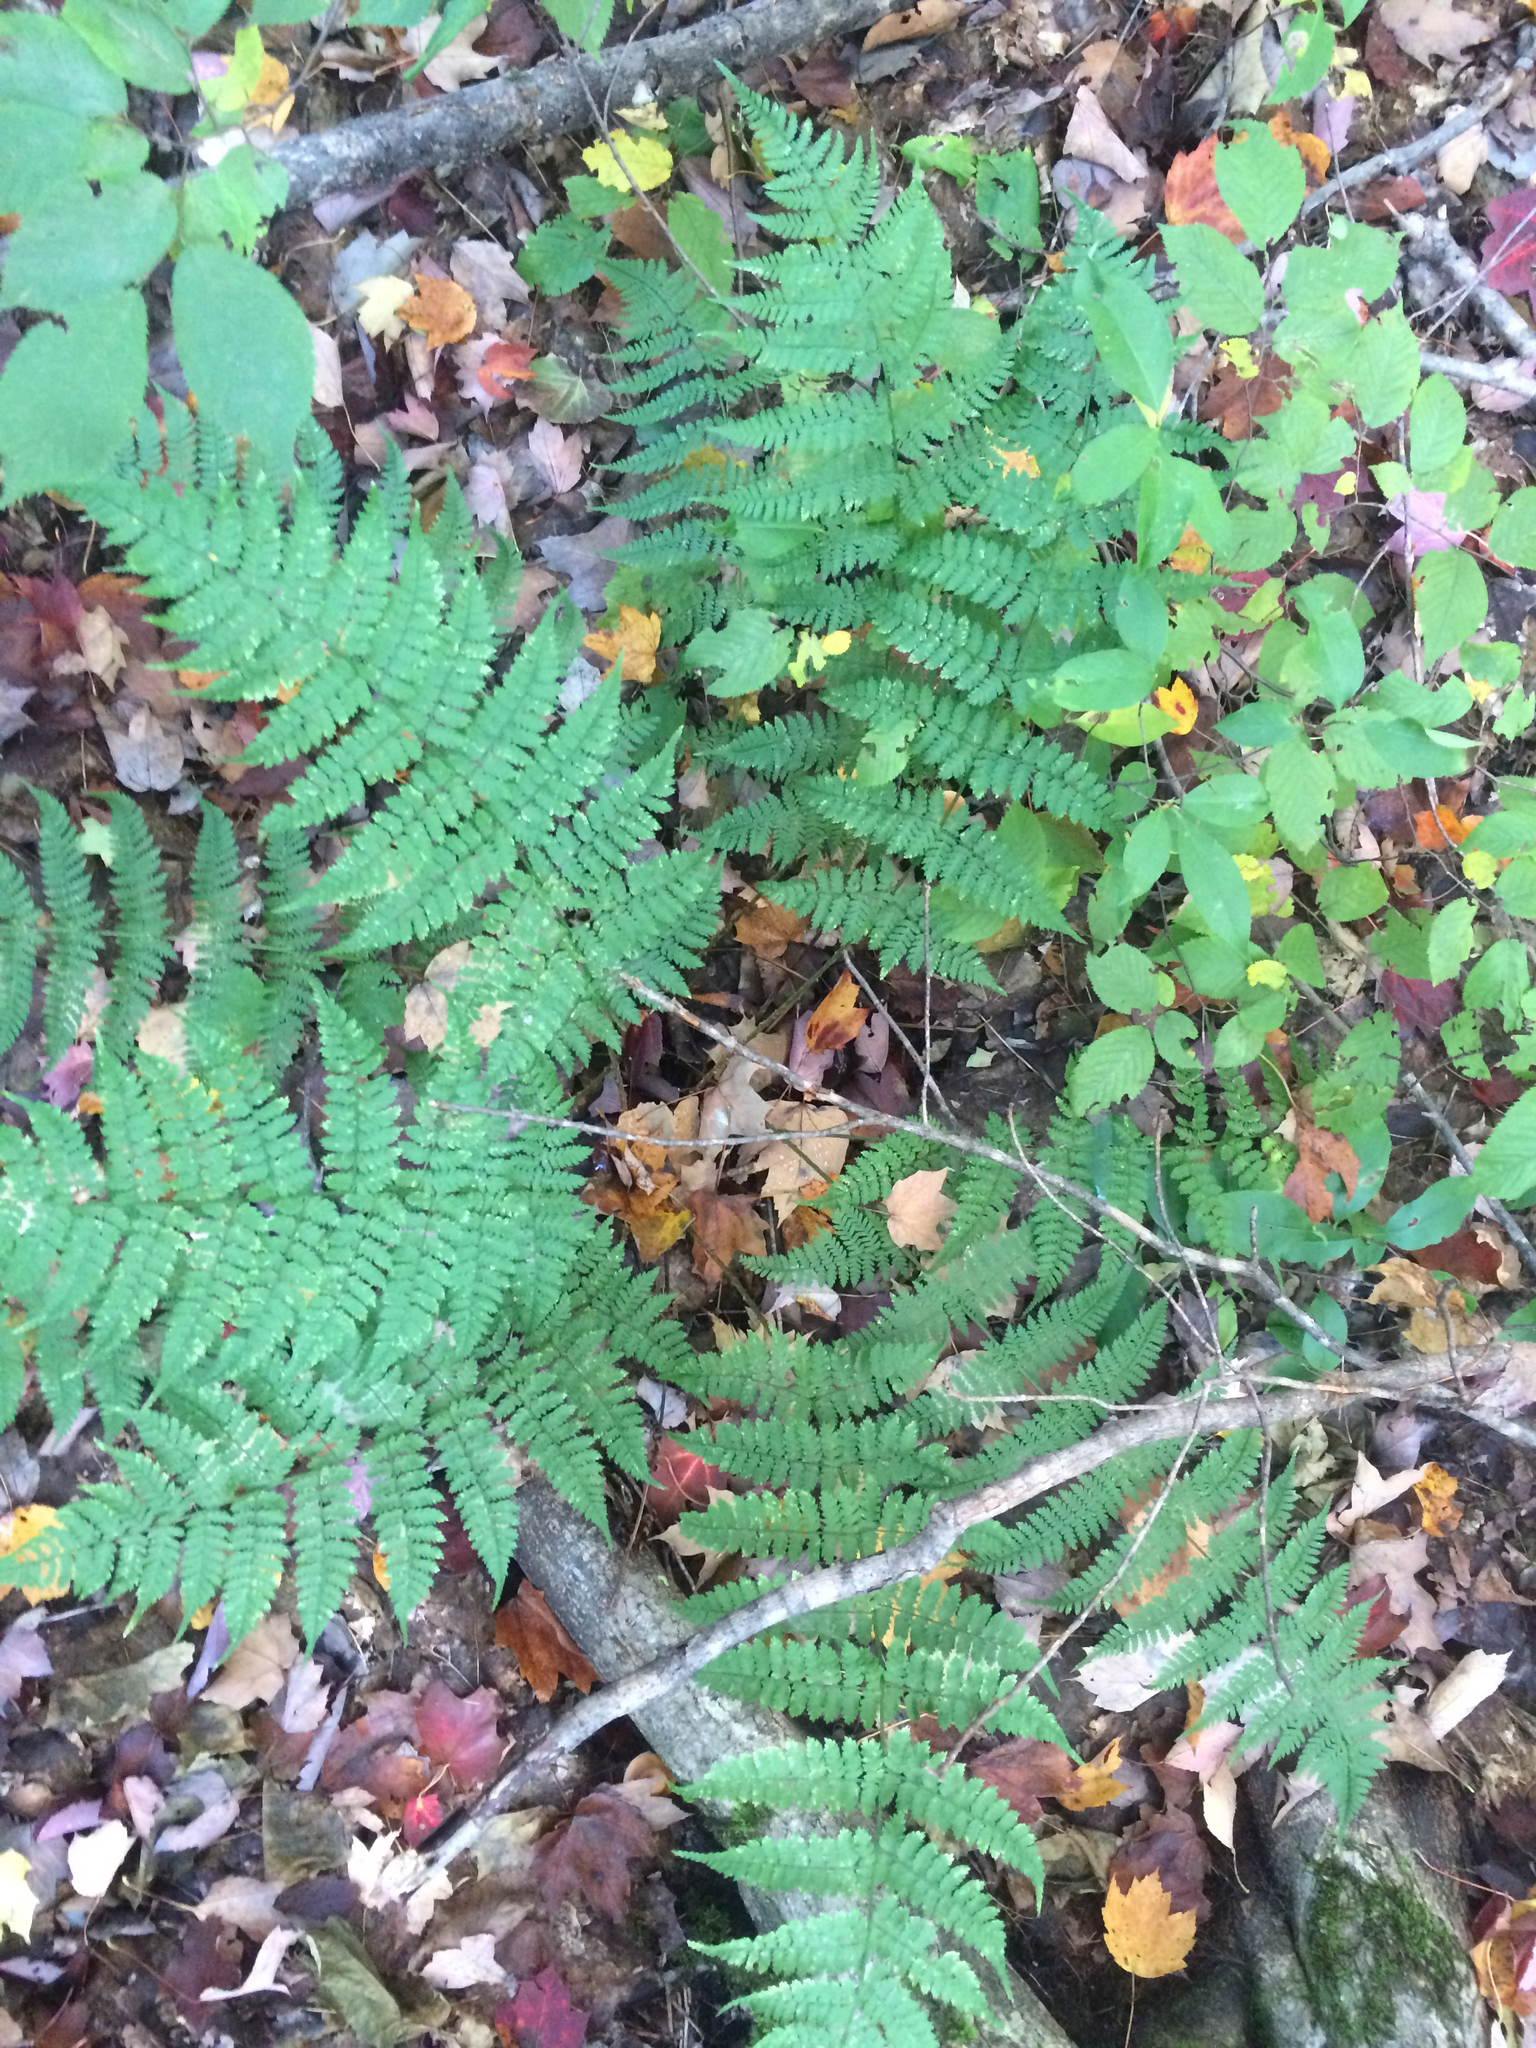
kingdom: Plantae
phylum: Tracheophyta
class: Polypodiopsida
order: Polypodiales
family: Dryopteridaceae
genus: Dryopteris
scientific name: Dryopteris intermedia
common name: Evergreen wood fern
